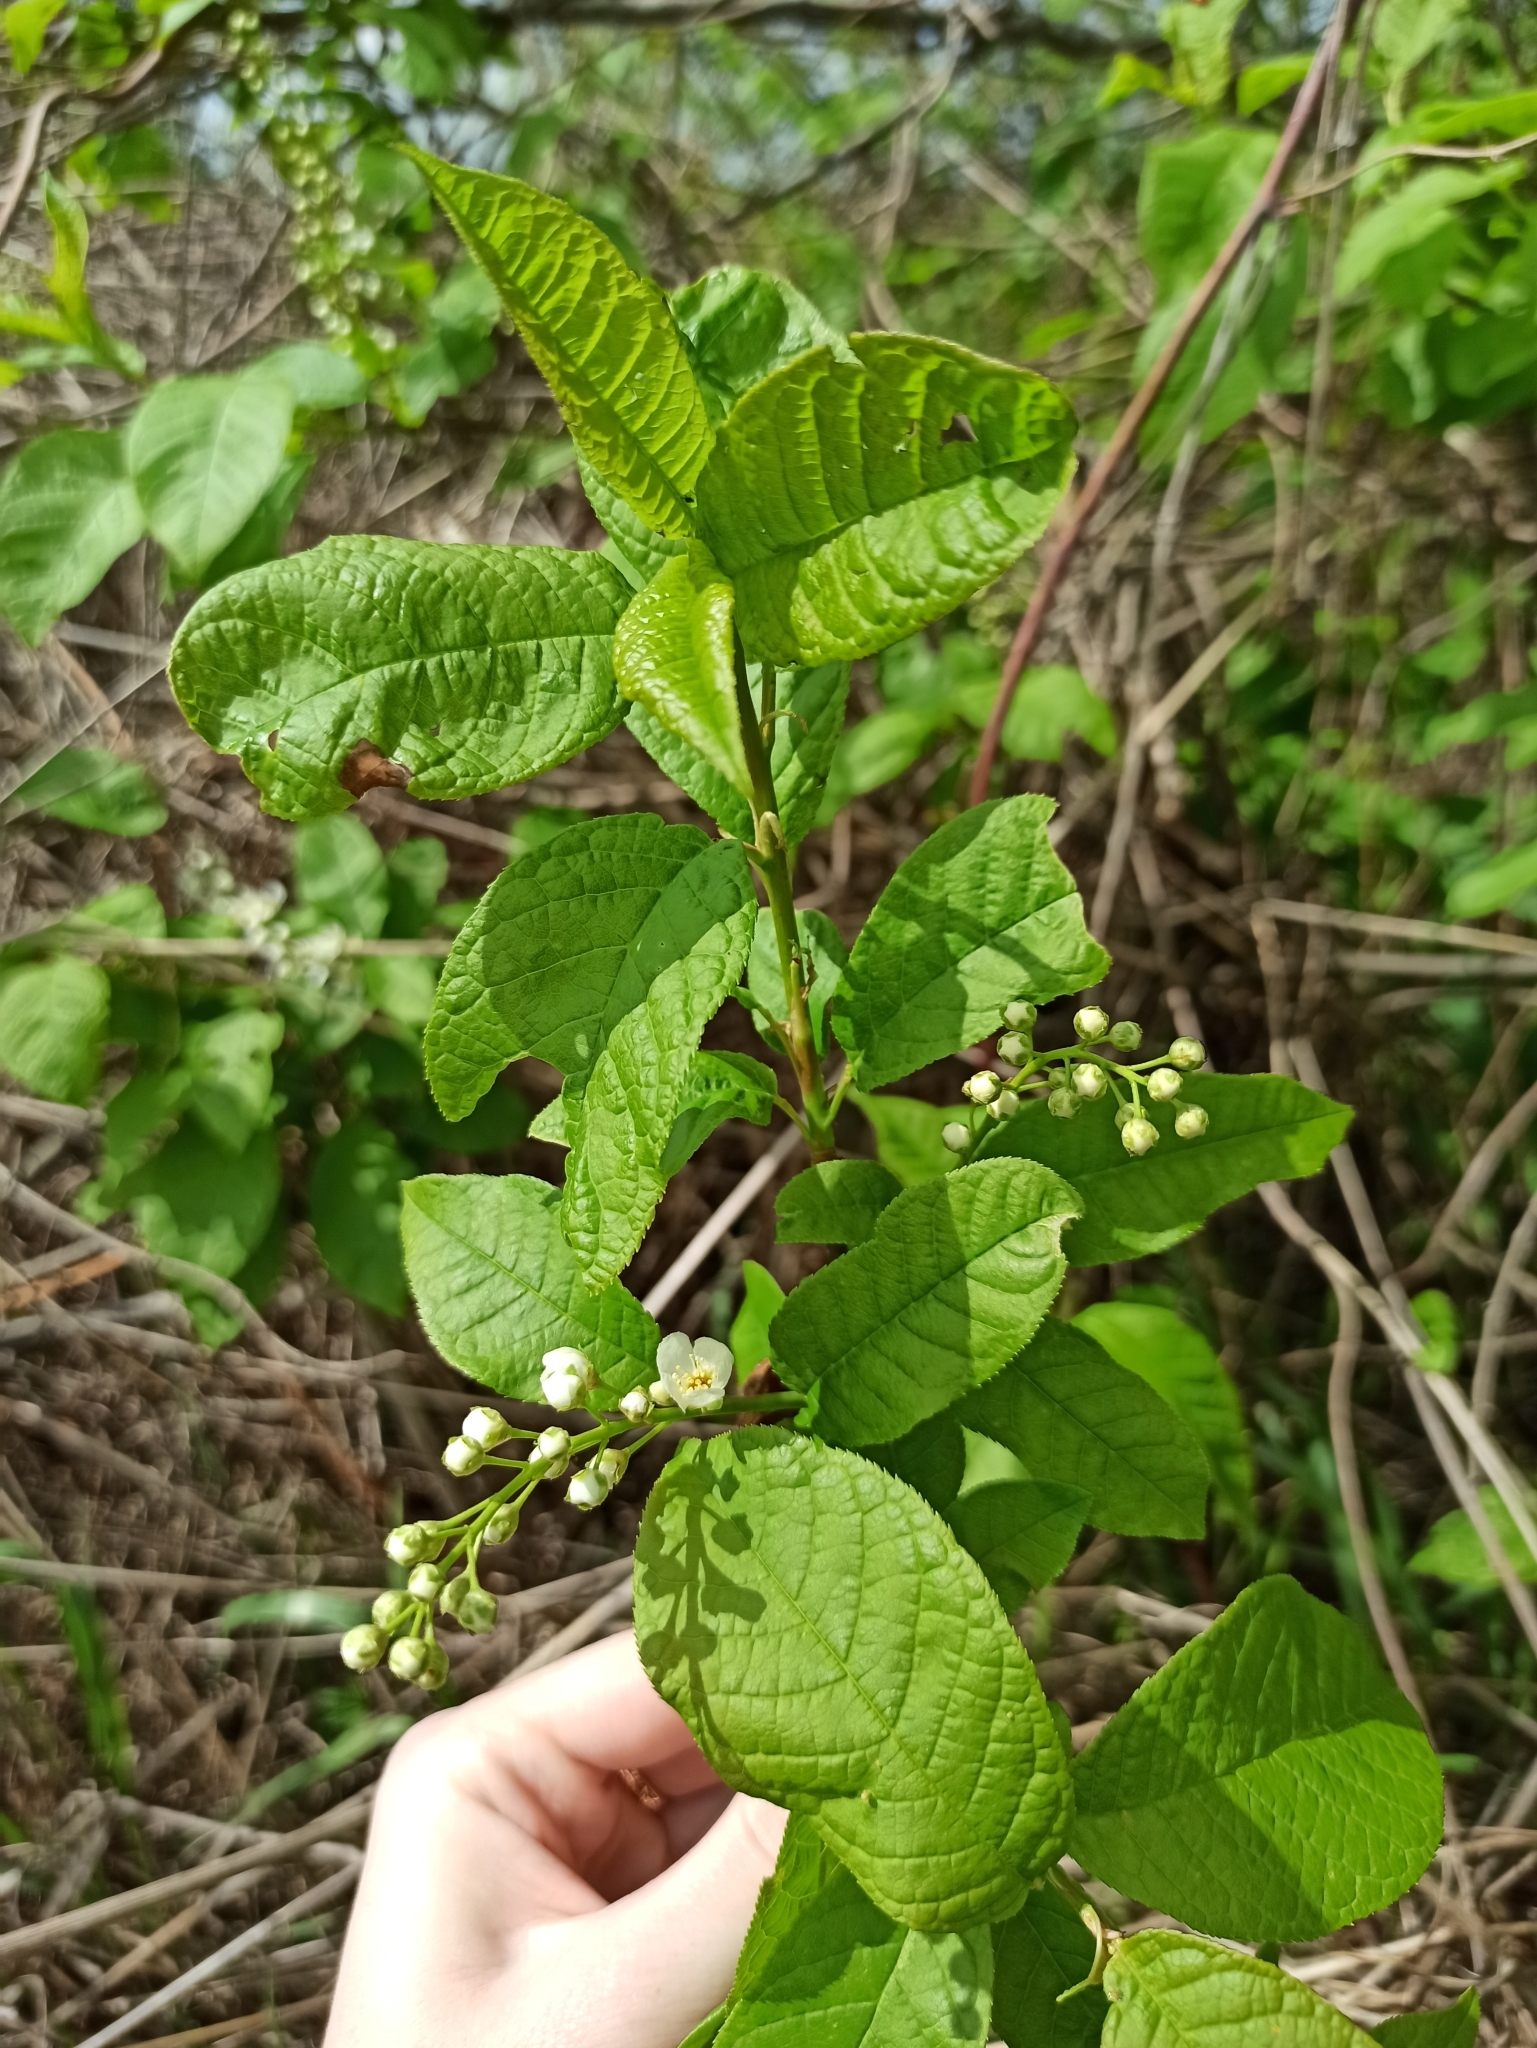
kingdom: Plantae
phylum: Tracheophyta
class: Magnoliopsida
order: Rosales
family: Rosaceae
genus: Prunus
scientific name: Prunus padus
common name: Bird cherry
